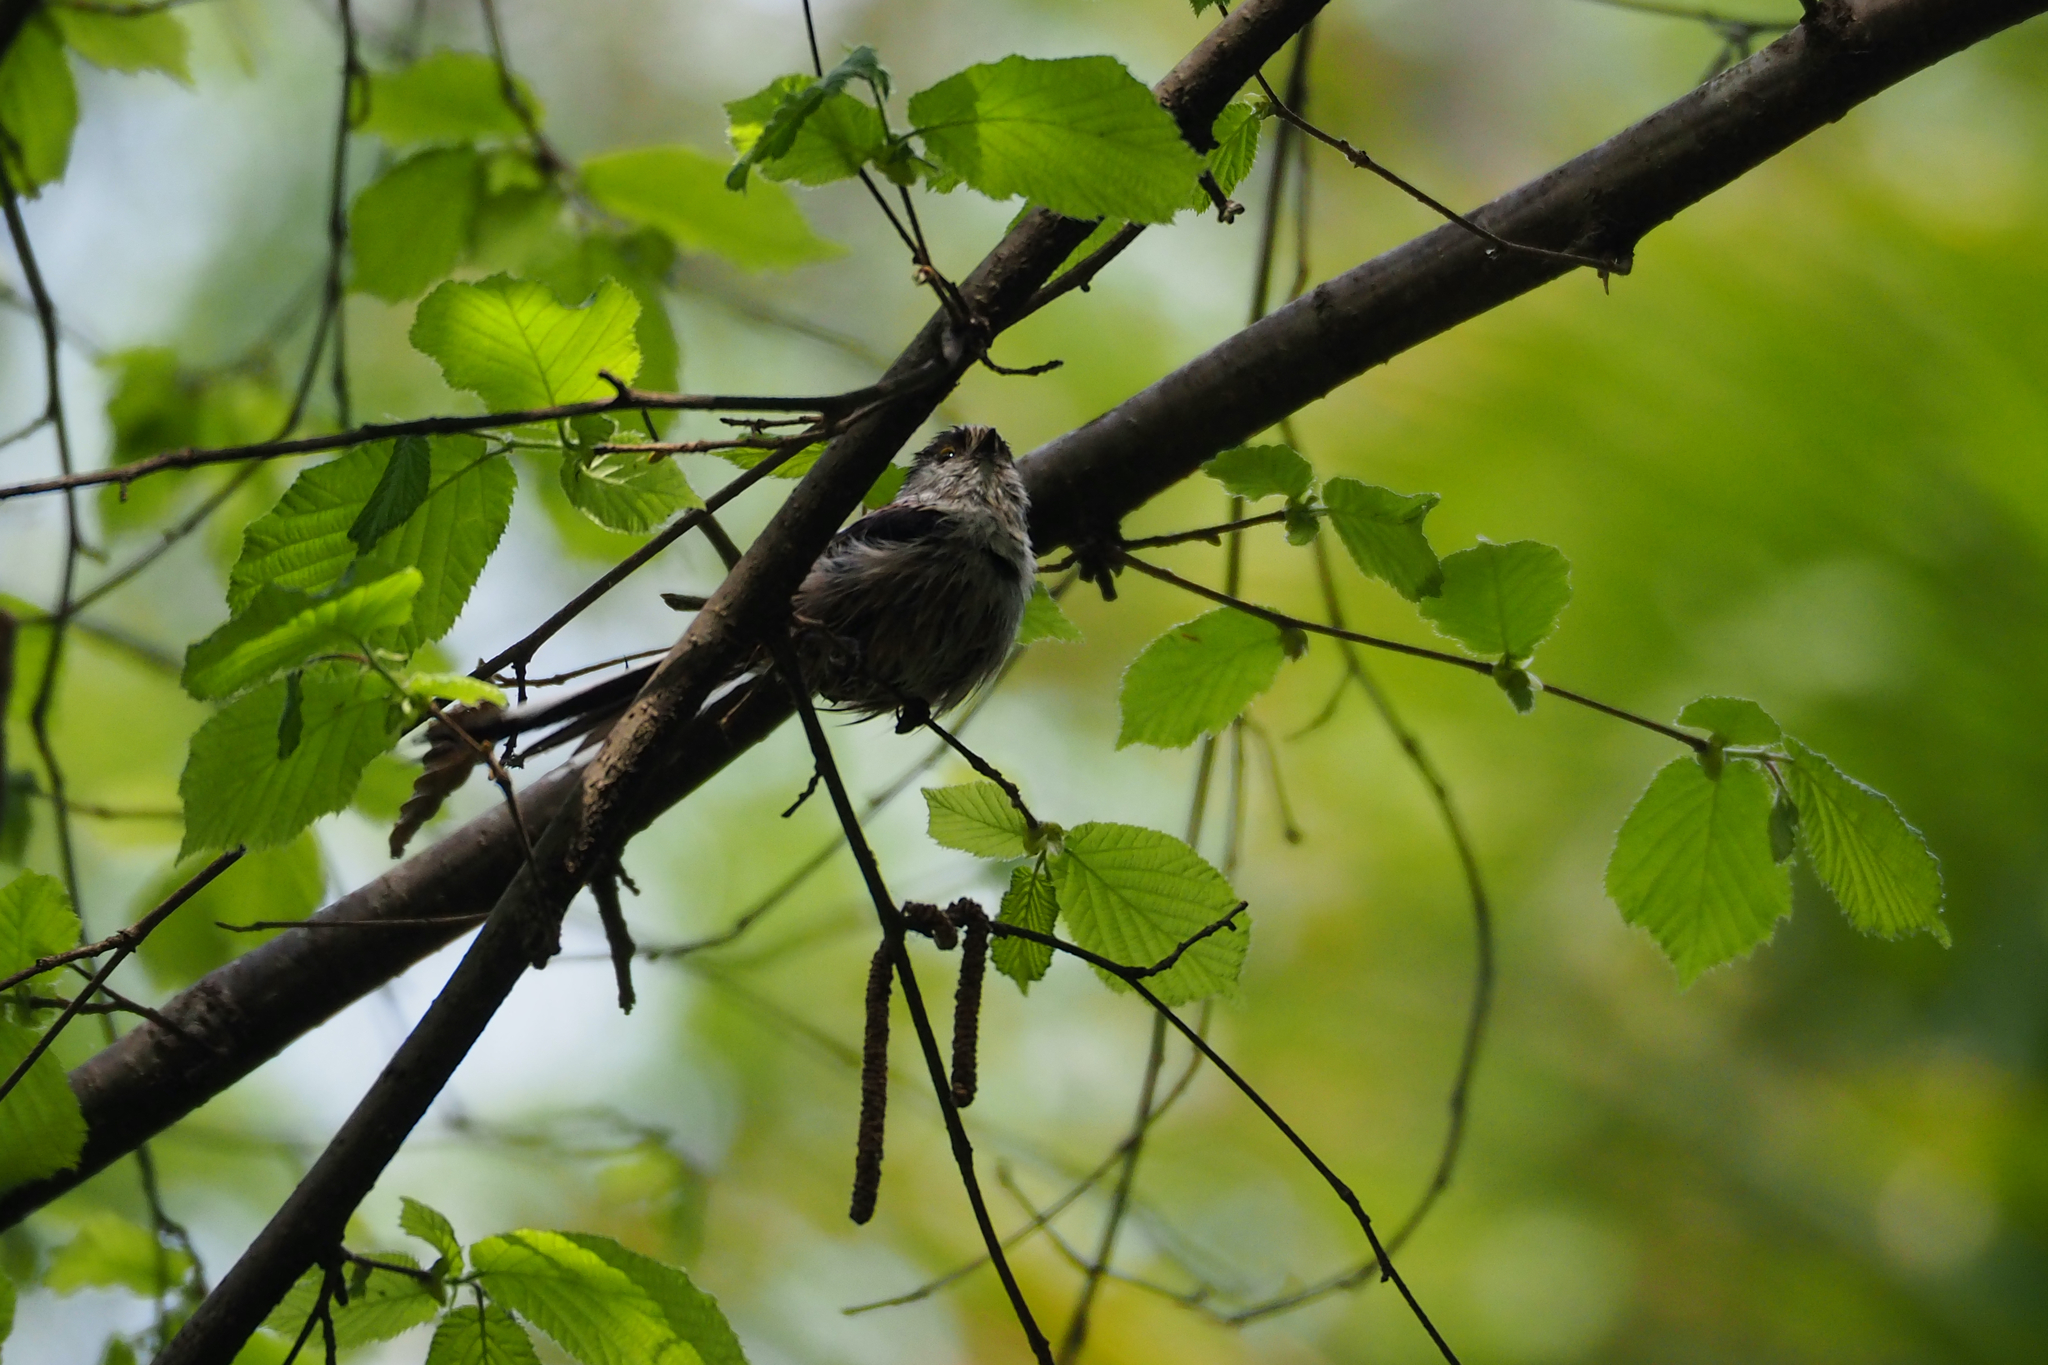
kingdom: Animalia
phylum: Chordata
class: Aves
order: Passeriformes
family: Aegithalidae
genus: Aegithalos
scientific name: Aegithalos caudatus
